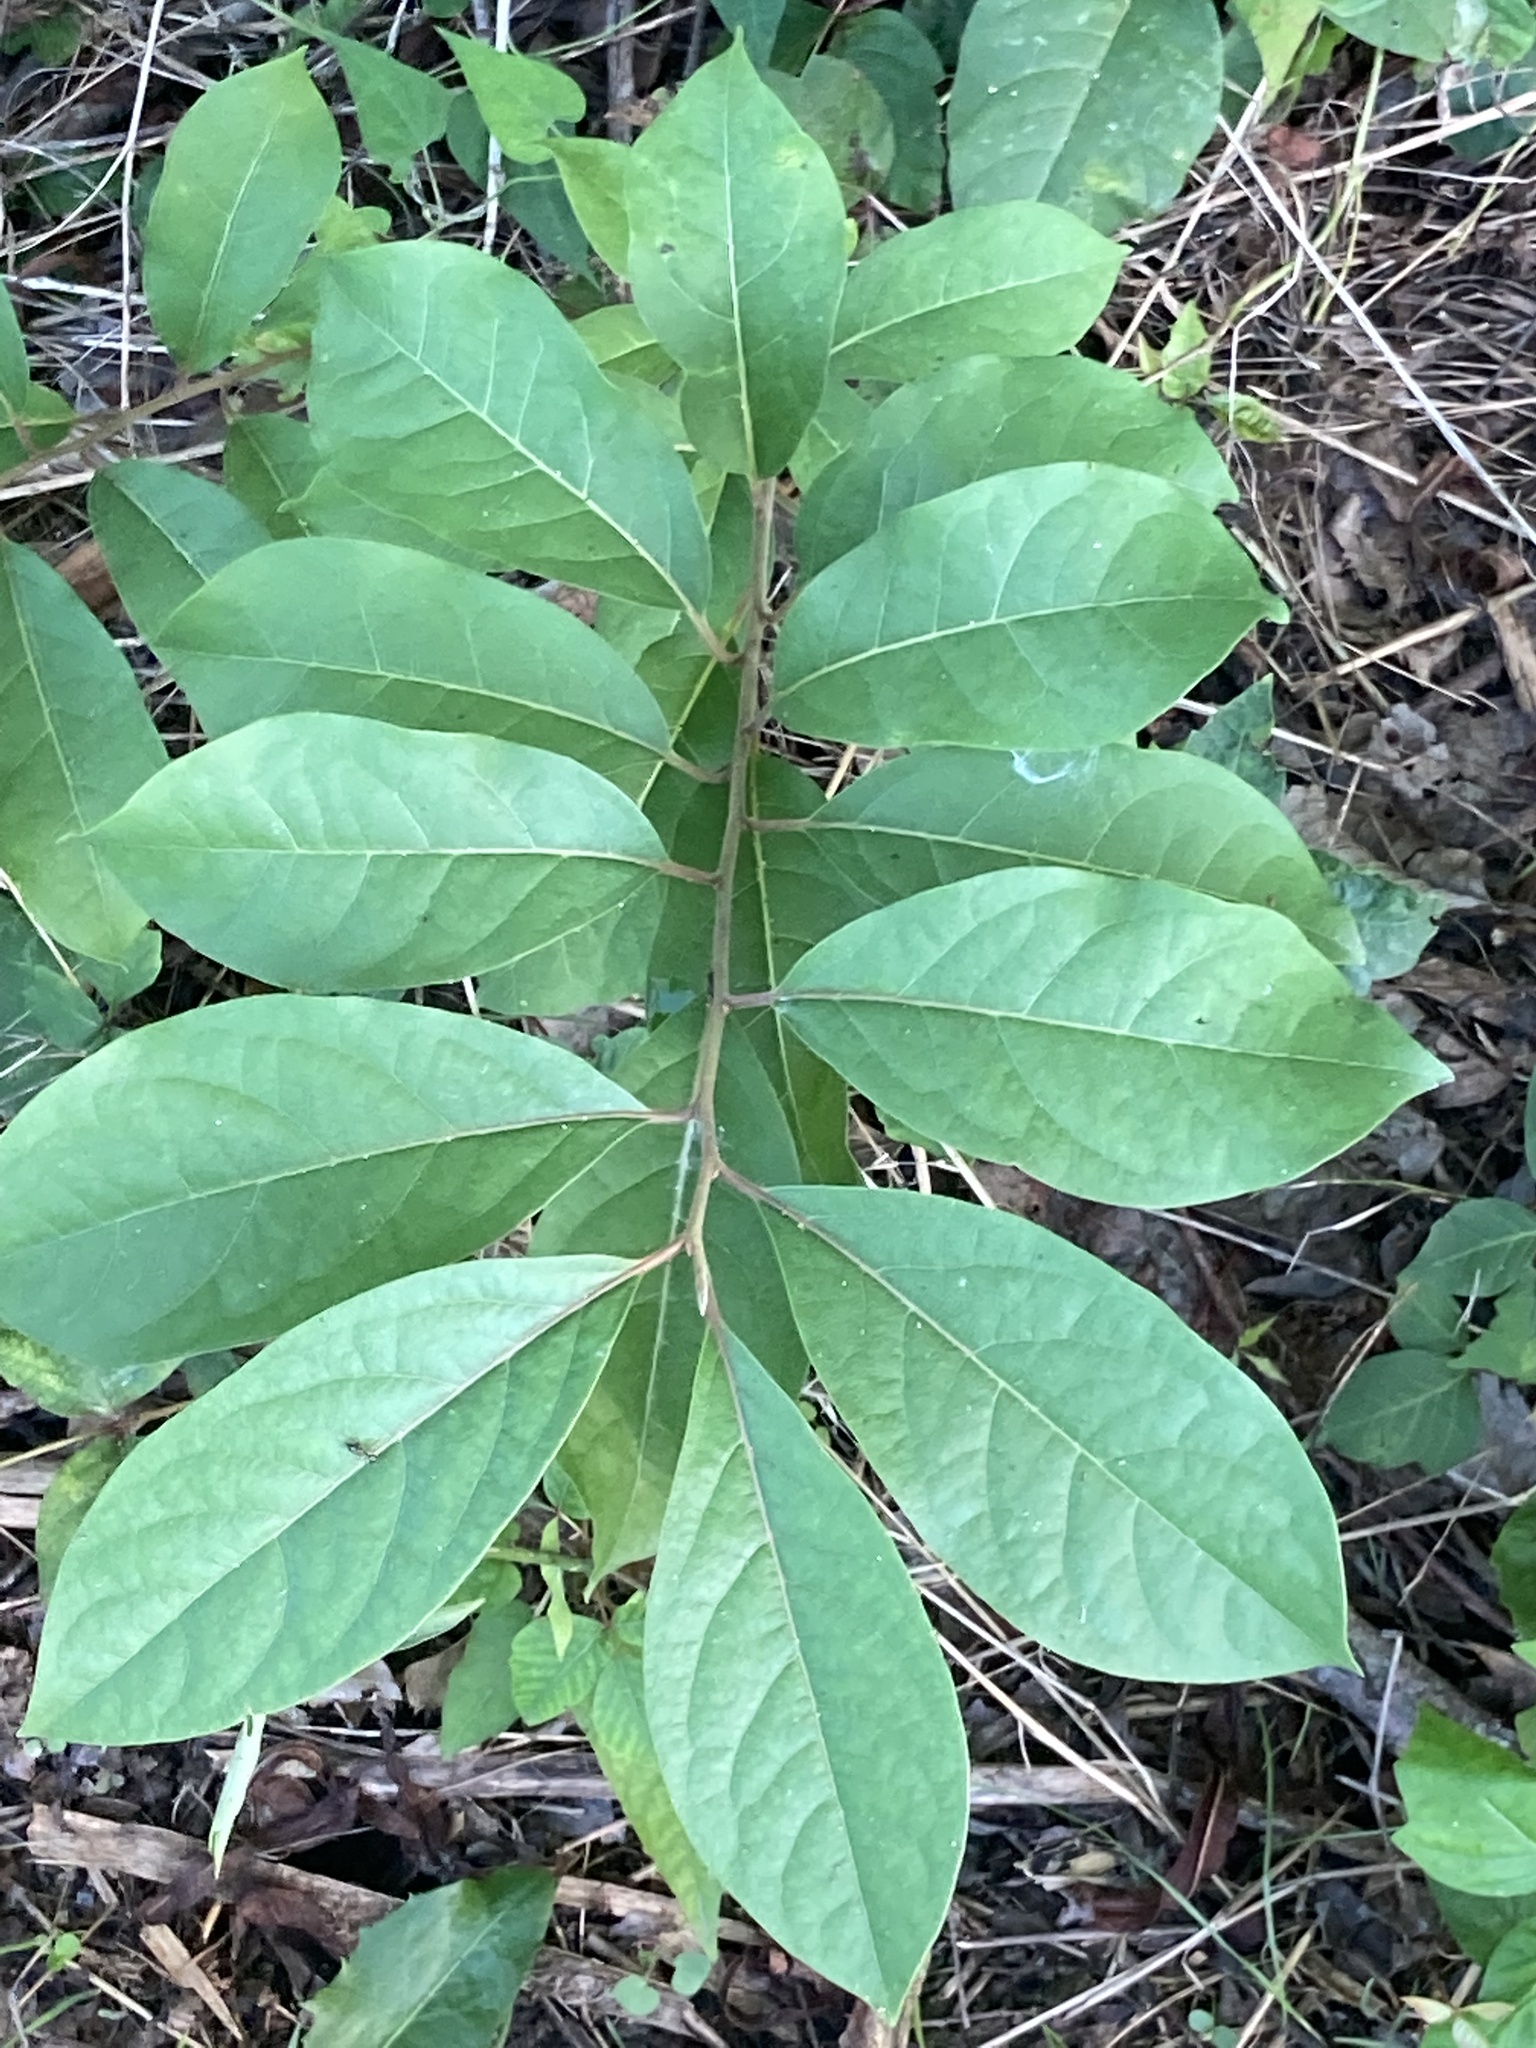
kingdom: Plantae
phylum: Tracheophyta
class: Magnoliopsida
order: Laurales
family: Lauraceae
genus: Lindera
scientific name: Lindera benzoin
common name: Spicebush
